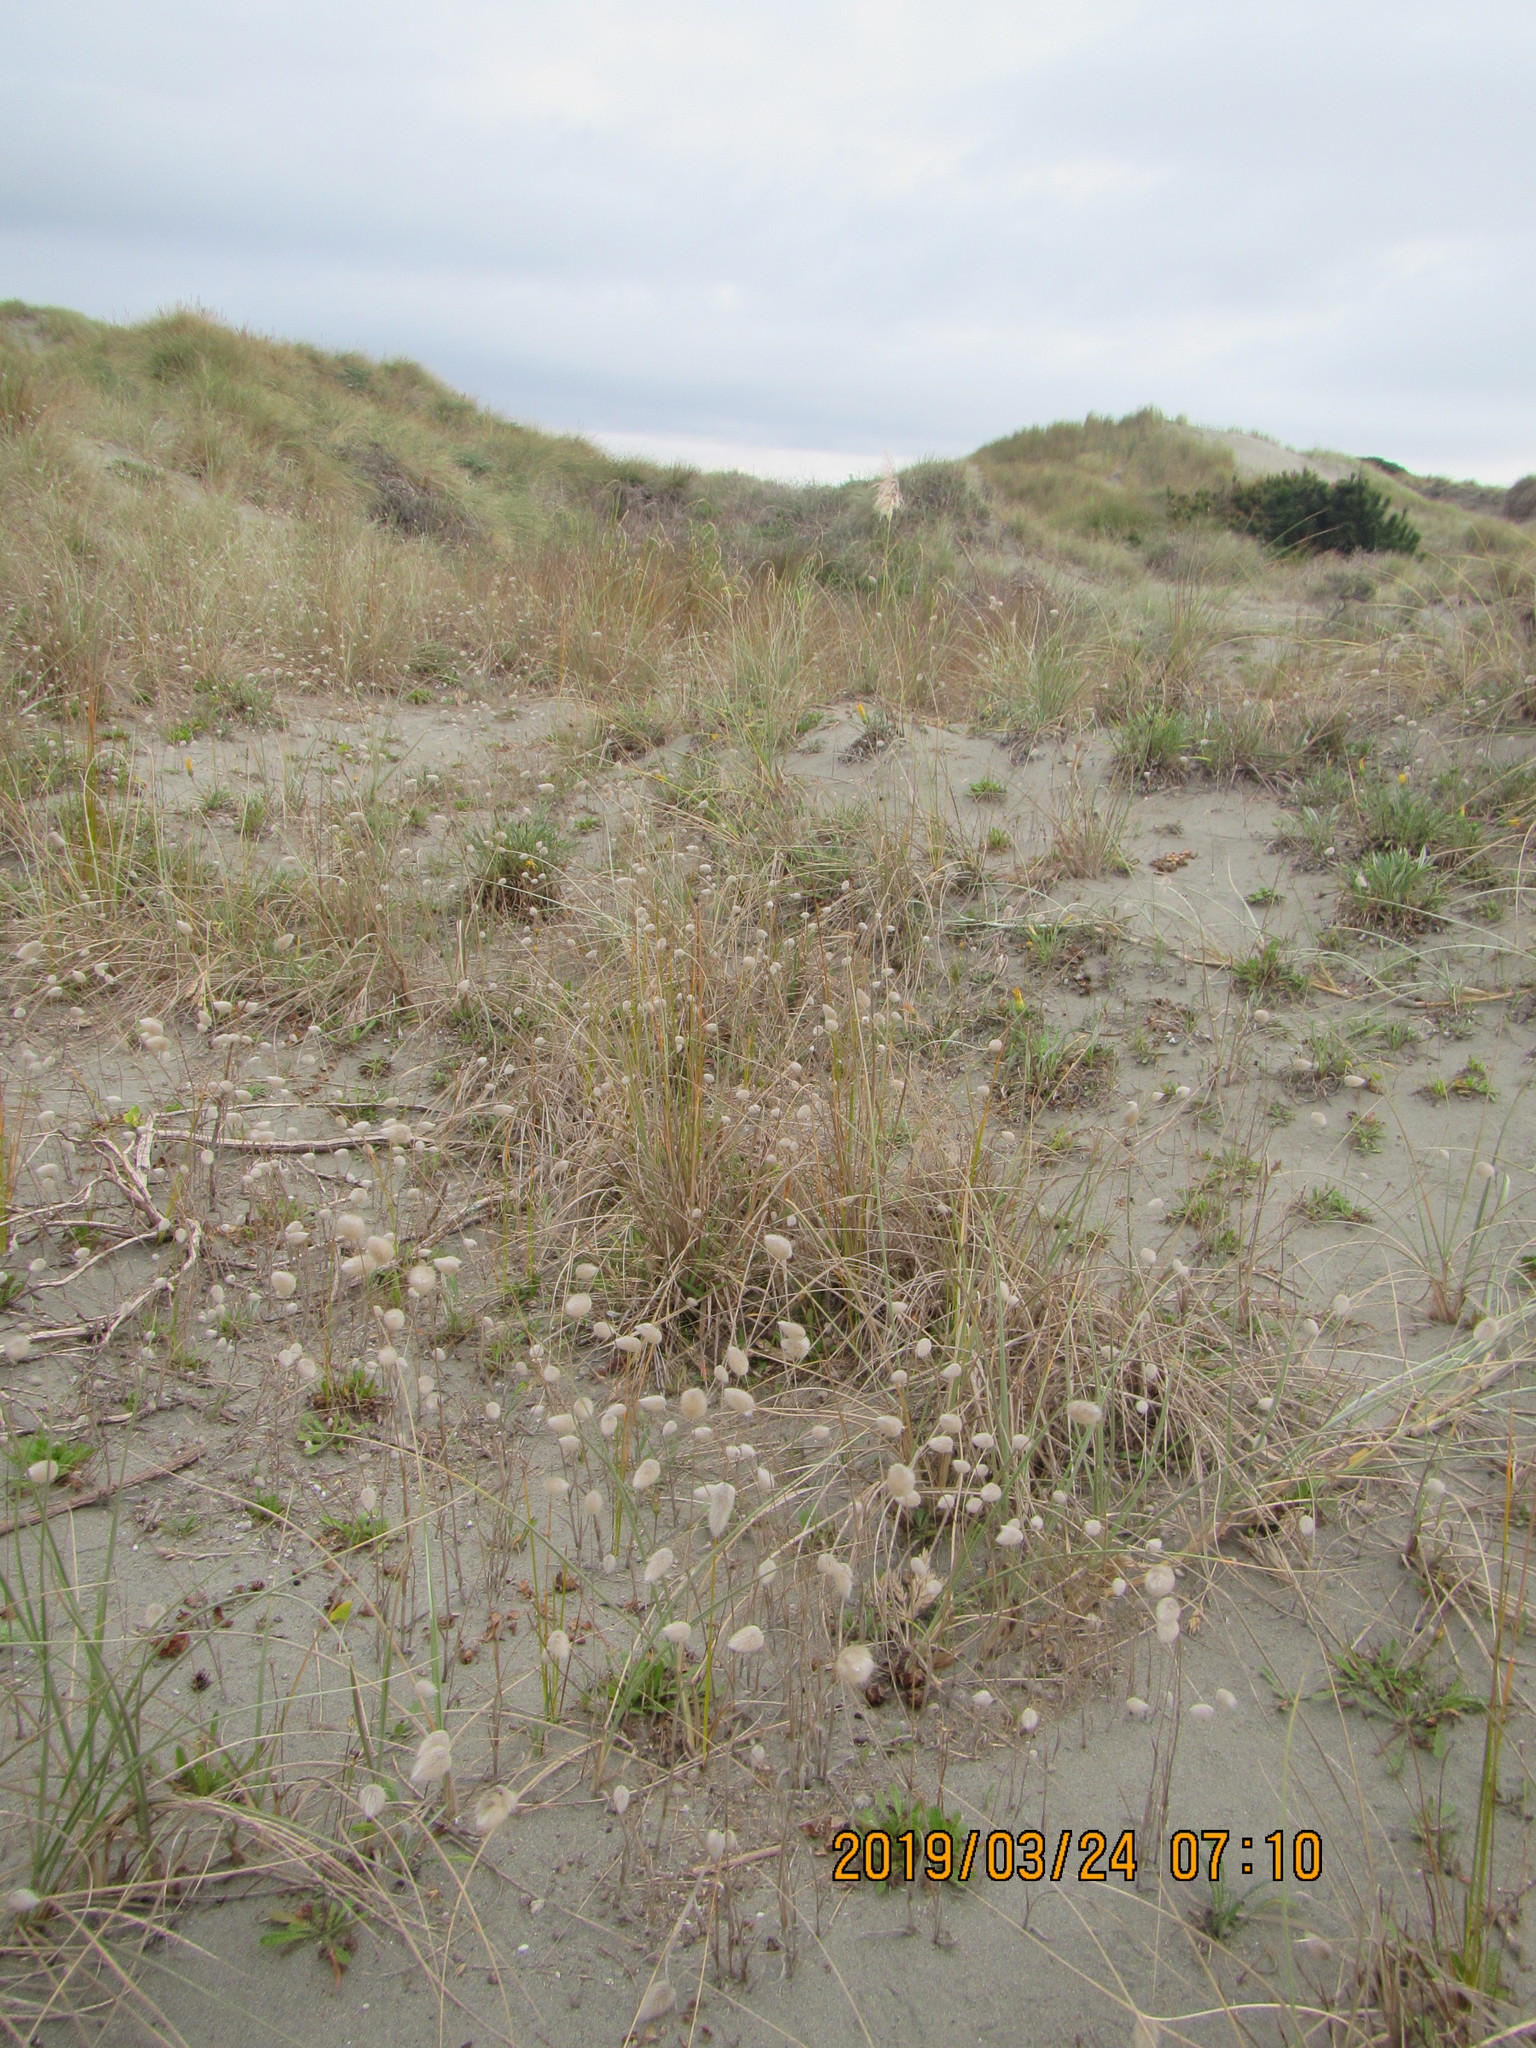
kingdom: Plantae
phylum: Tracheophyta
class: Liliopsida
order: Poales
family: Poaceae
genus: Lagurus
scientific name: Lagurus ovatus
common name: Hare's-tail
